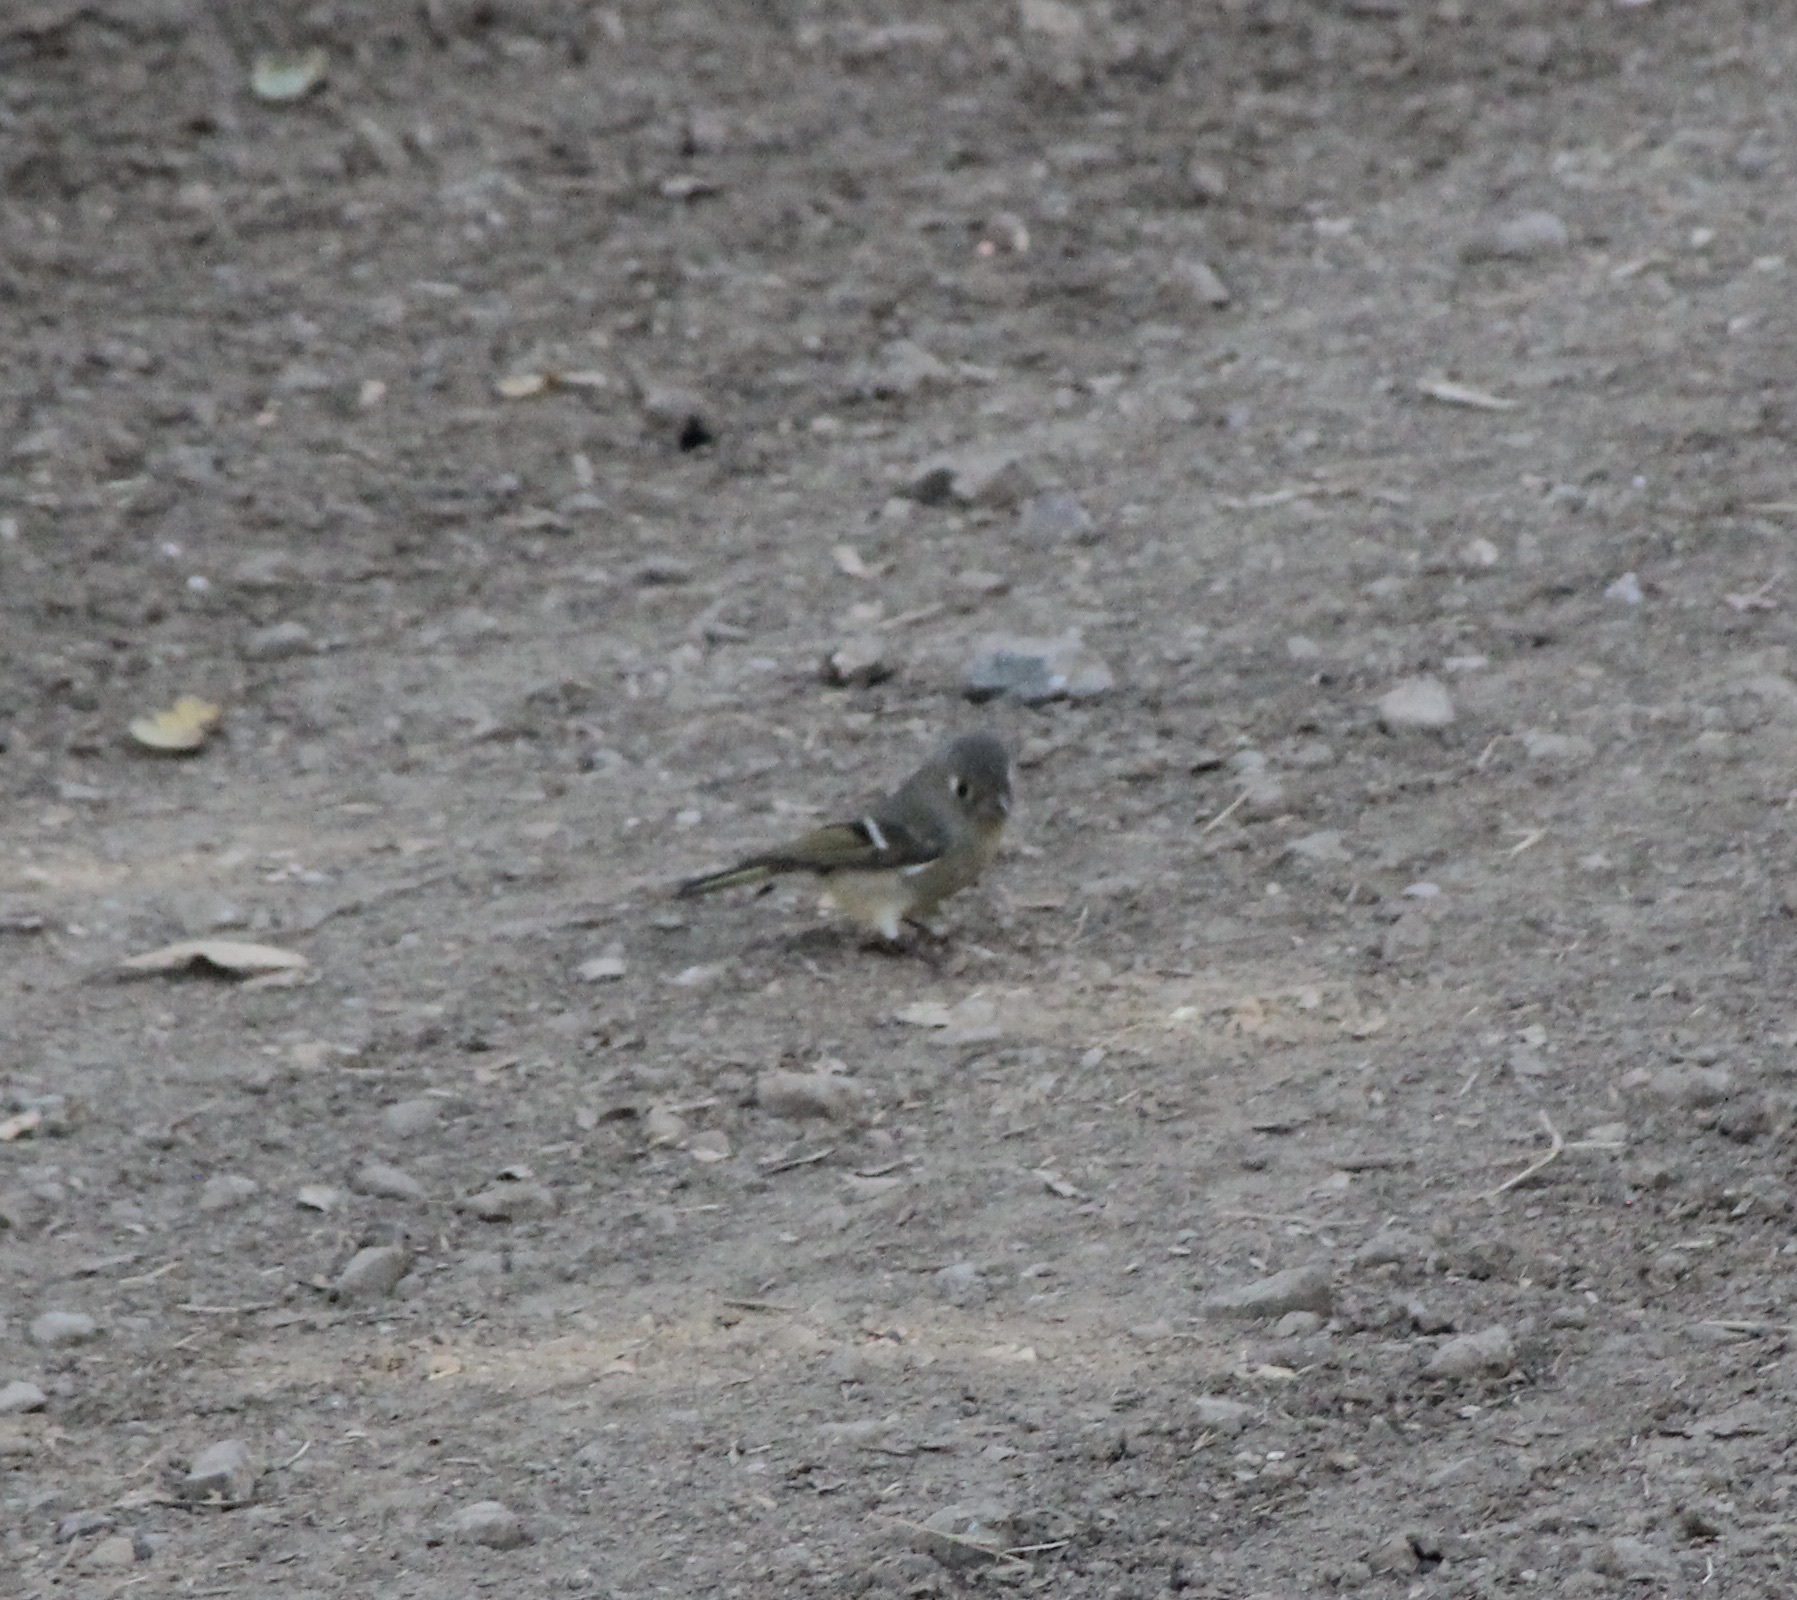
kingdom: Animalia
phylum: Chordata
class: Aves
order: Passeriformes
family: Regulidae
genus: Regulus
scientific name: Regulus calendula
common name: Ruby-crowned kinglet
